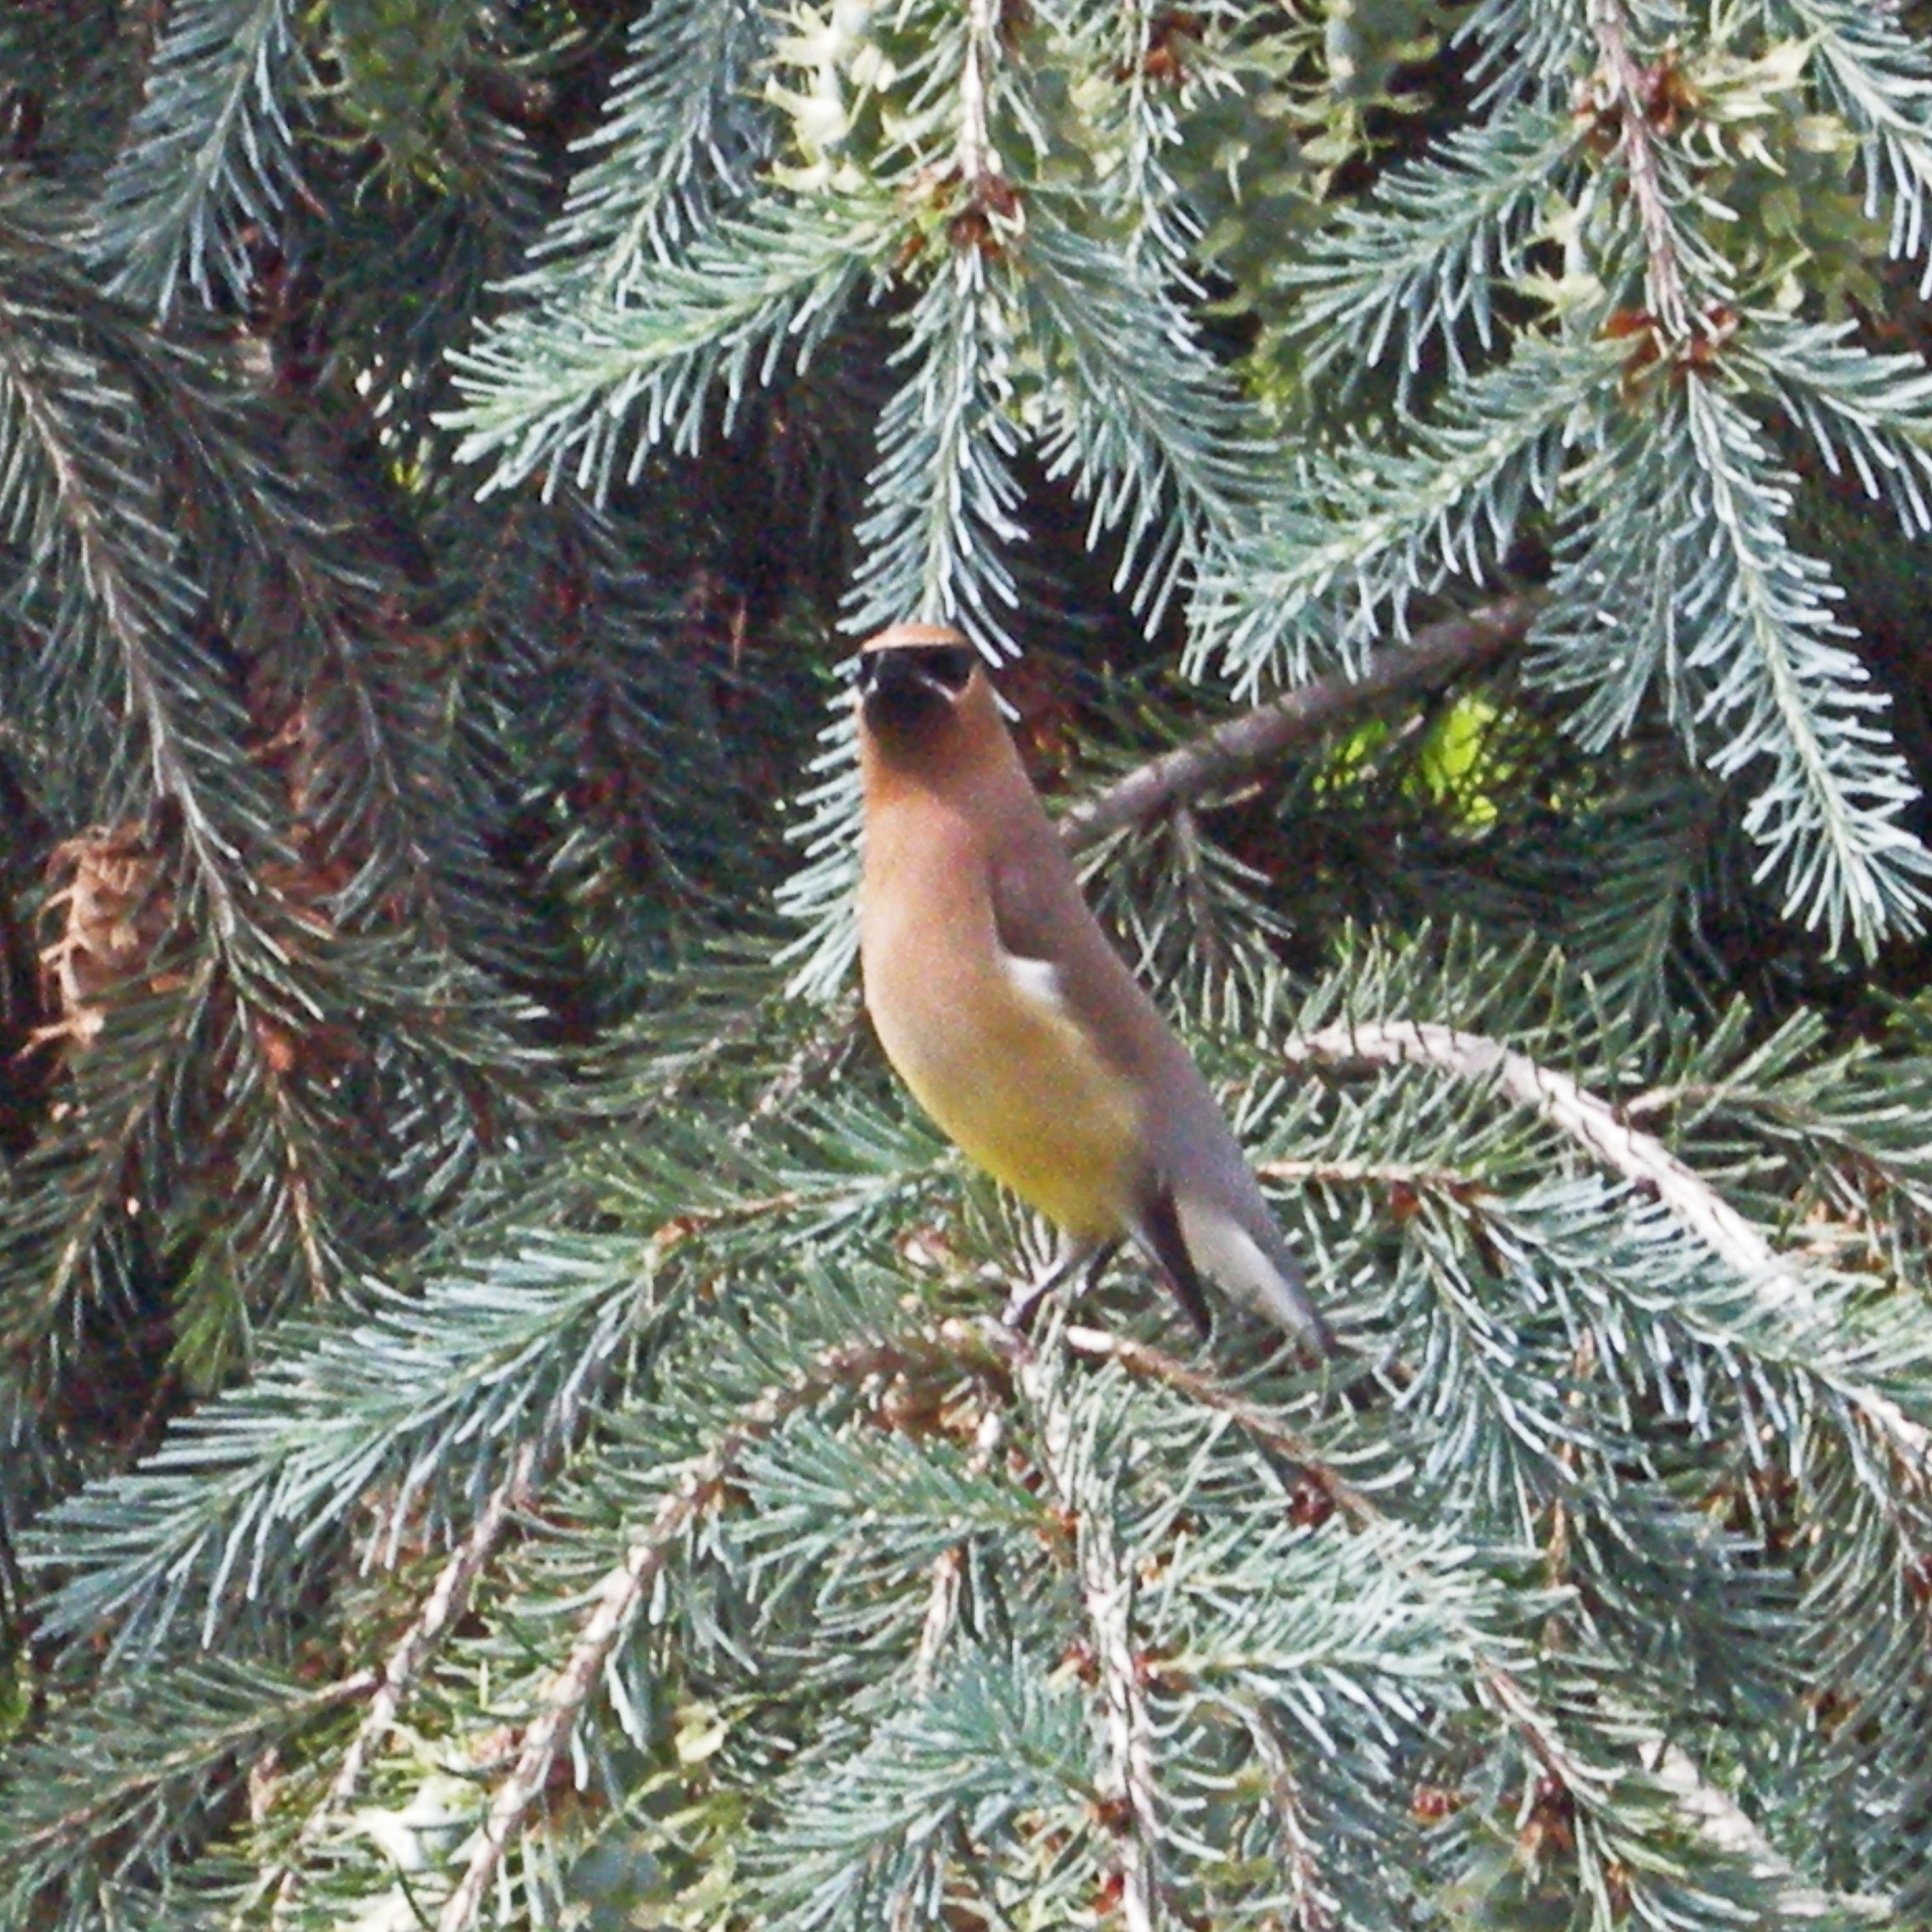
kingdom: Animalia
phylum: Chordata
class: Aves
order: Passeriformes
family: Bombycillidae
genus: Bombycilla
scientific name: Bombycilla cedrorum
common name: Cedar waxwing
